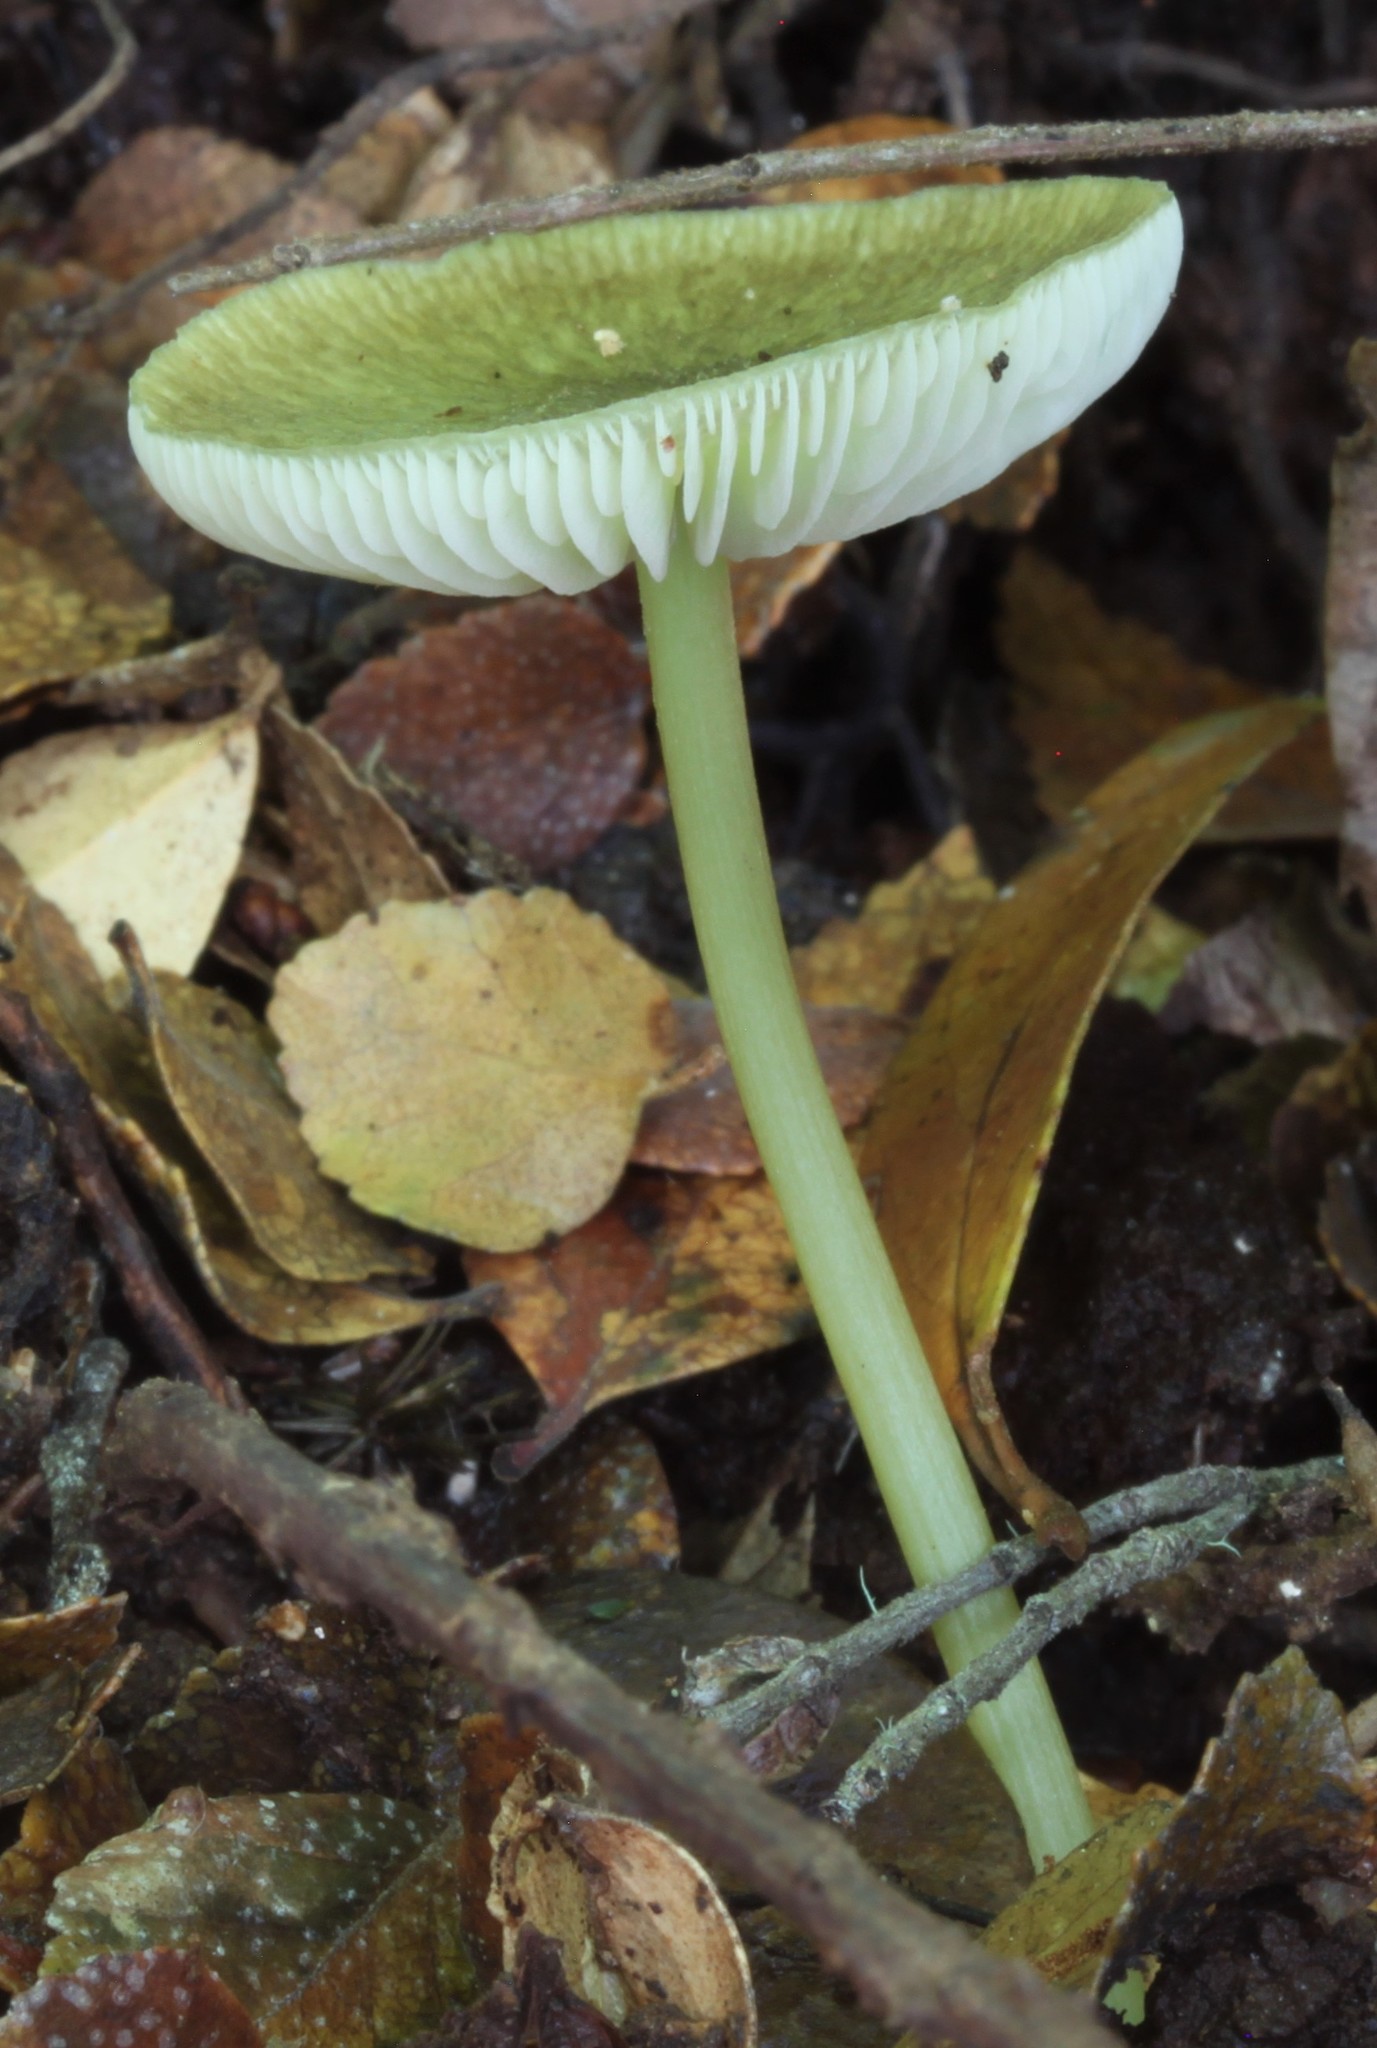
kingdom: Fungi
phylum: Basidiomycota
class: Agaricomycetes
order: Agaricales
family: Entolomataceae
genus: Entoloma
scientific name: Entoloma rodwayi
